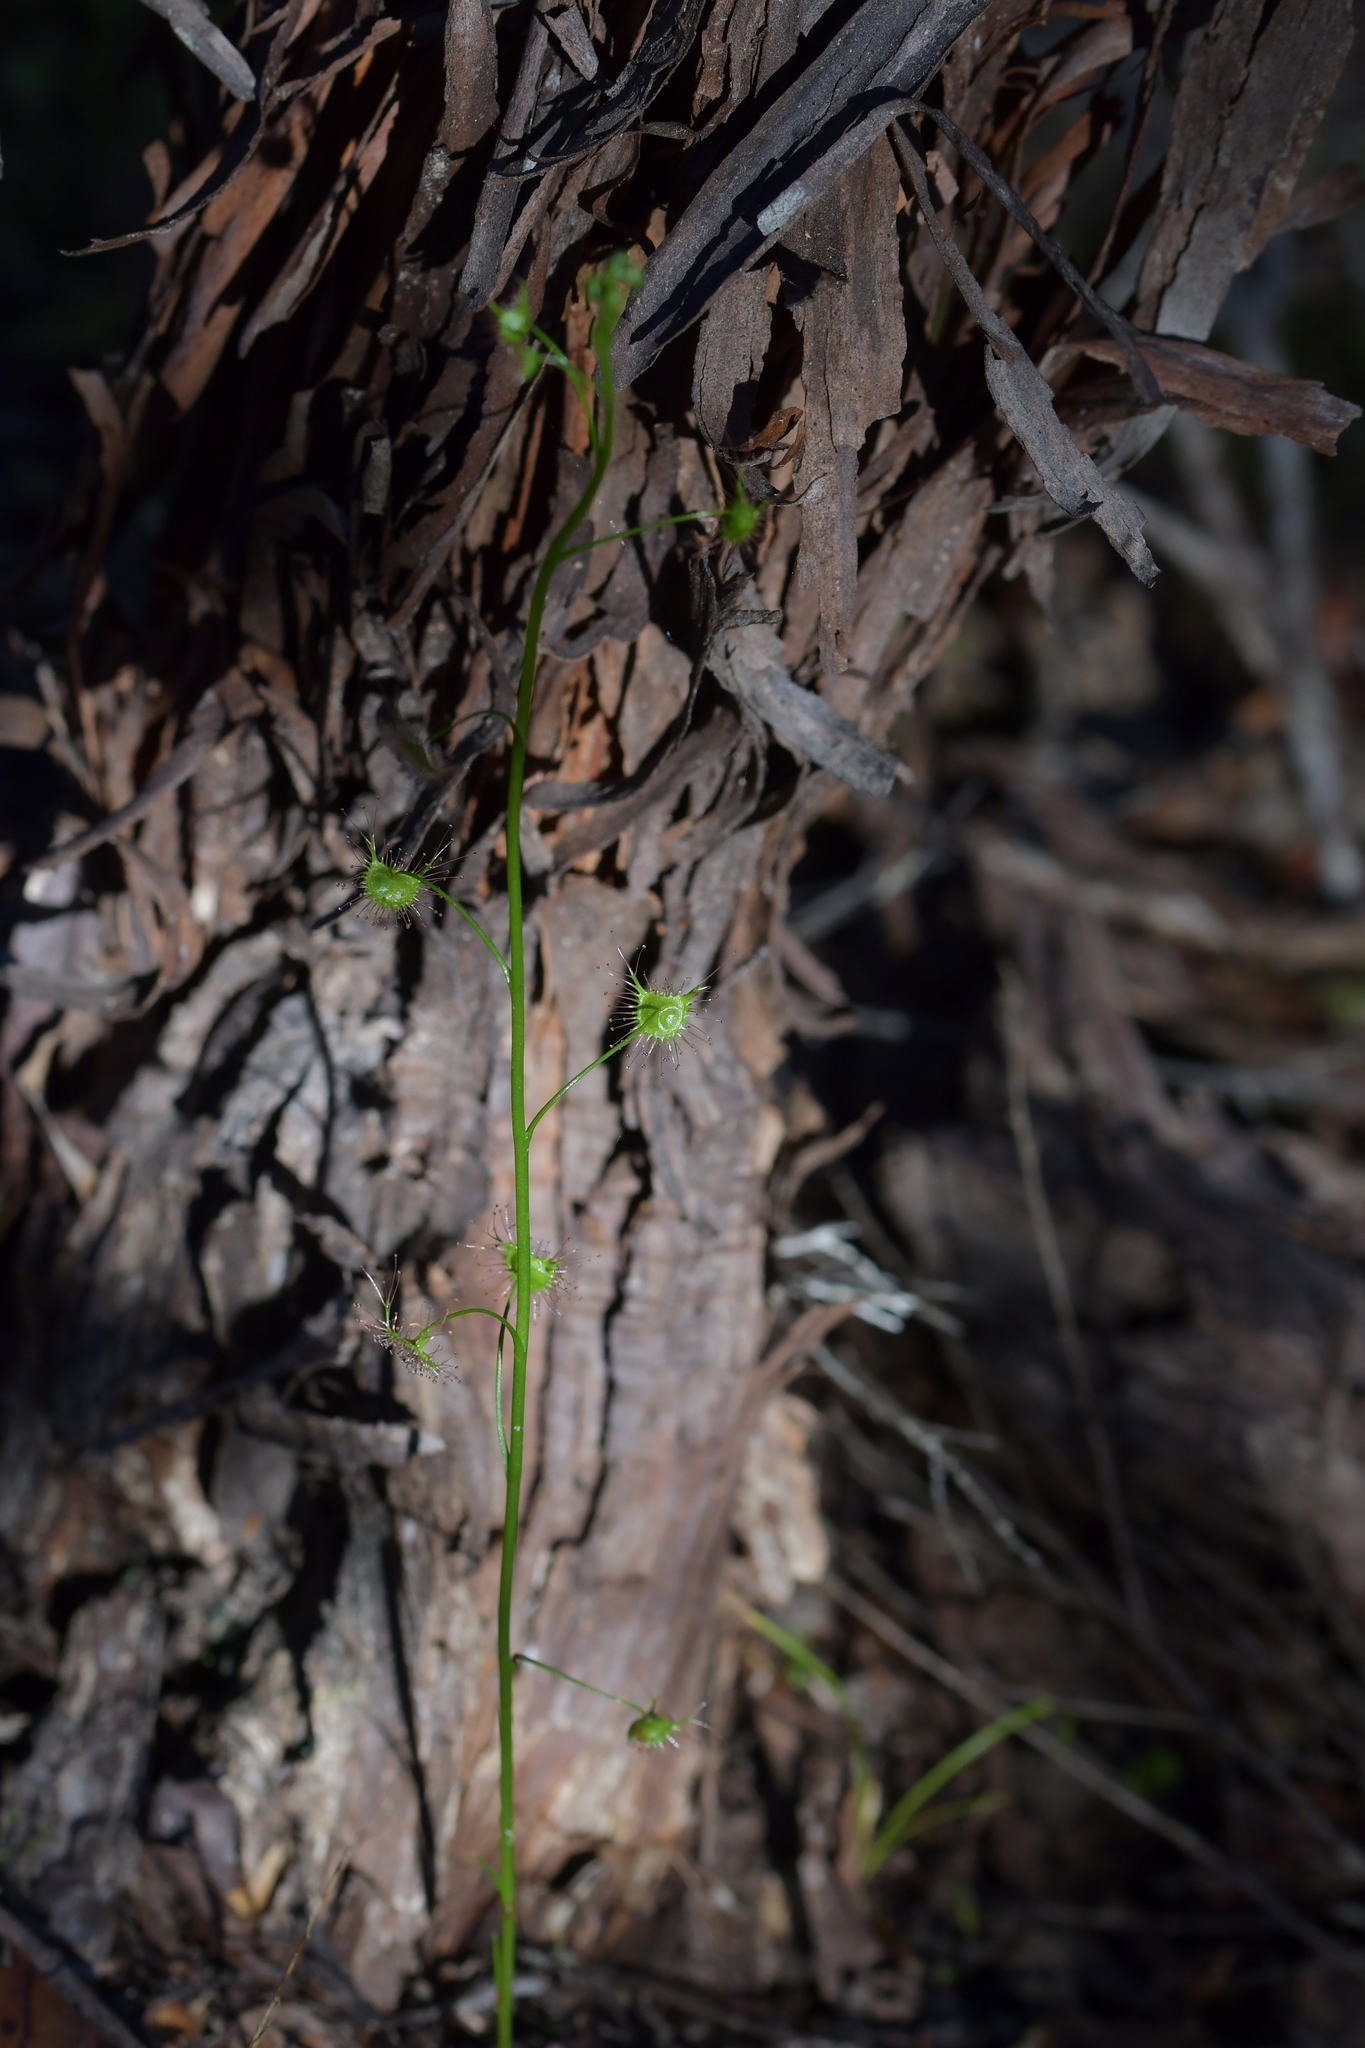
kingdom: Plantae
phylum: Tracheophyta
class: Magnoliopsida
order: Caryophyllales
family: Droseraceae
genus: Drosera
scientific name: Drosera peltata
